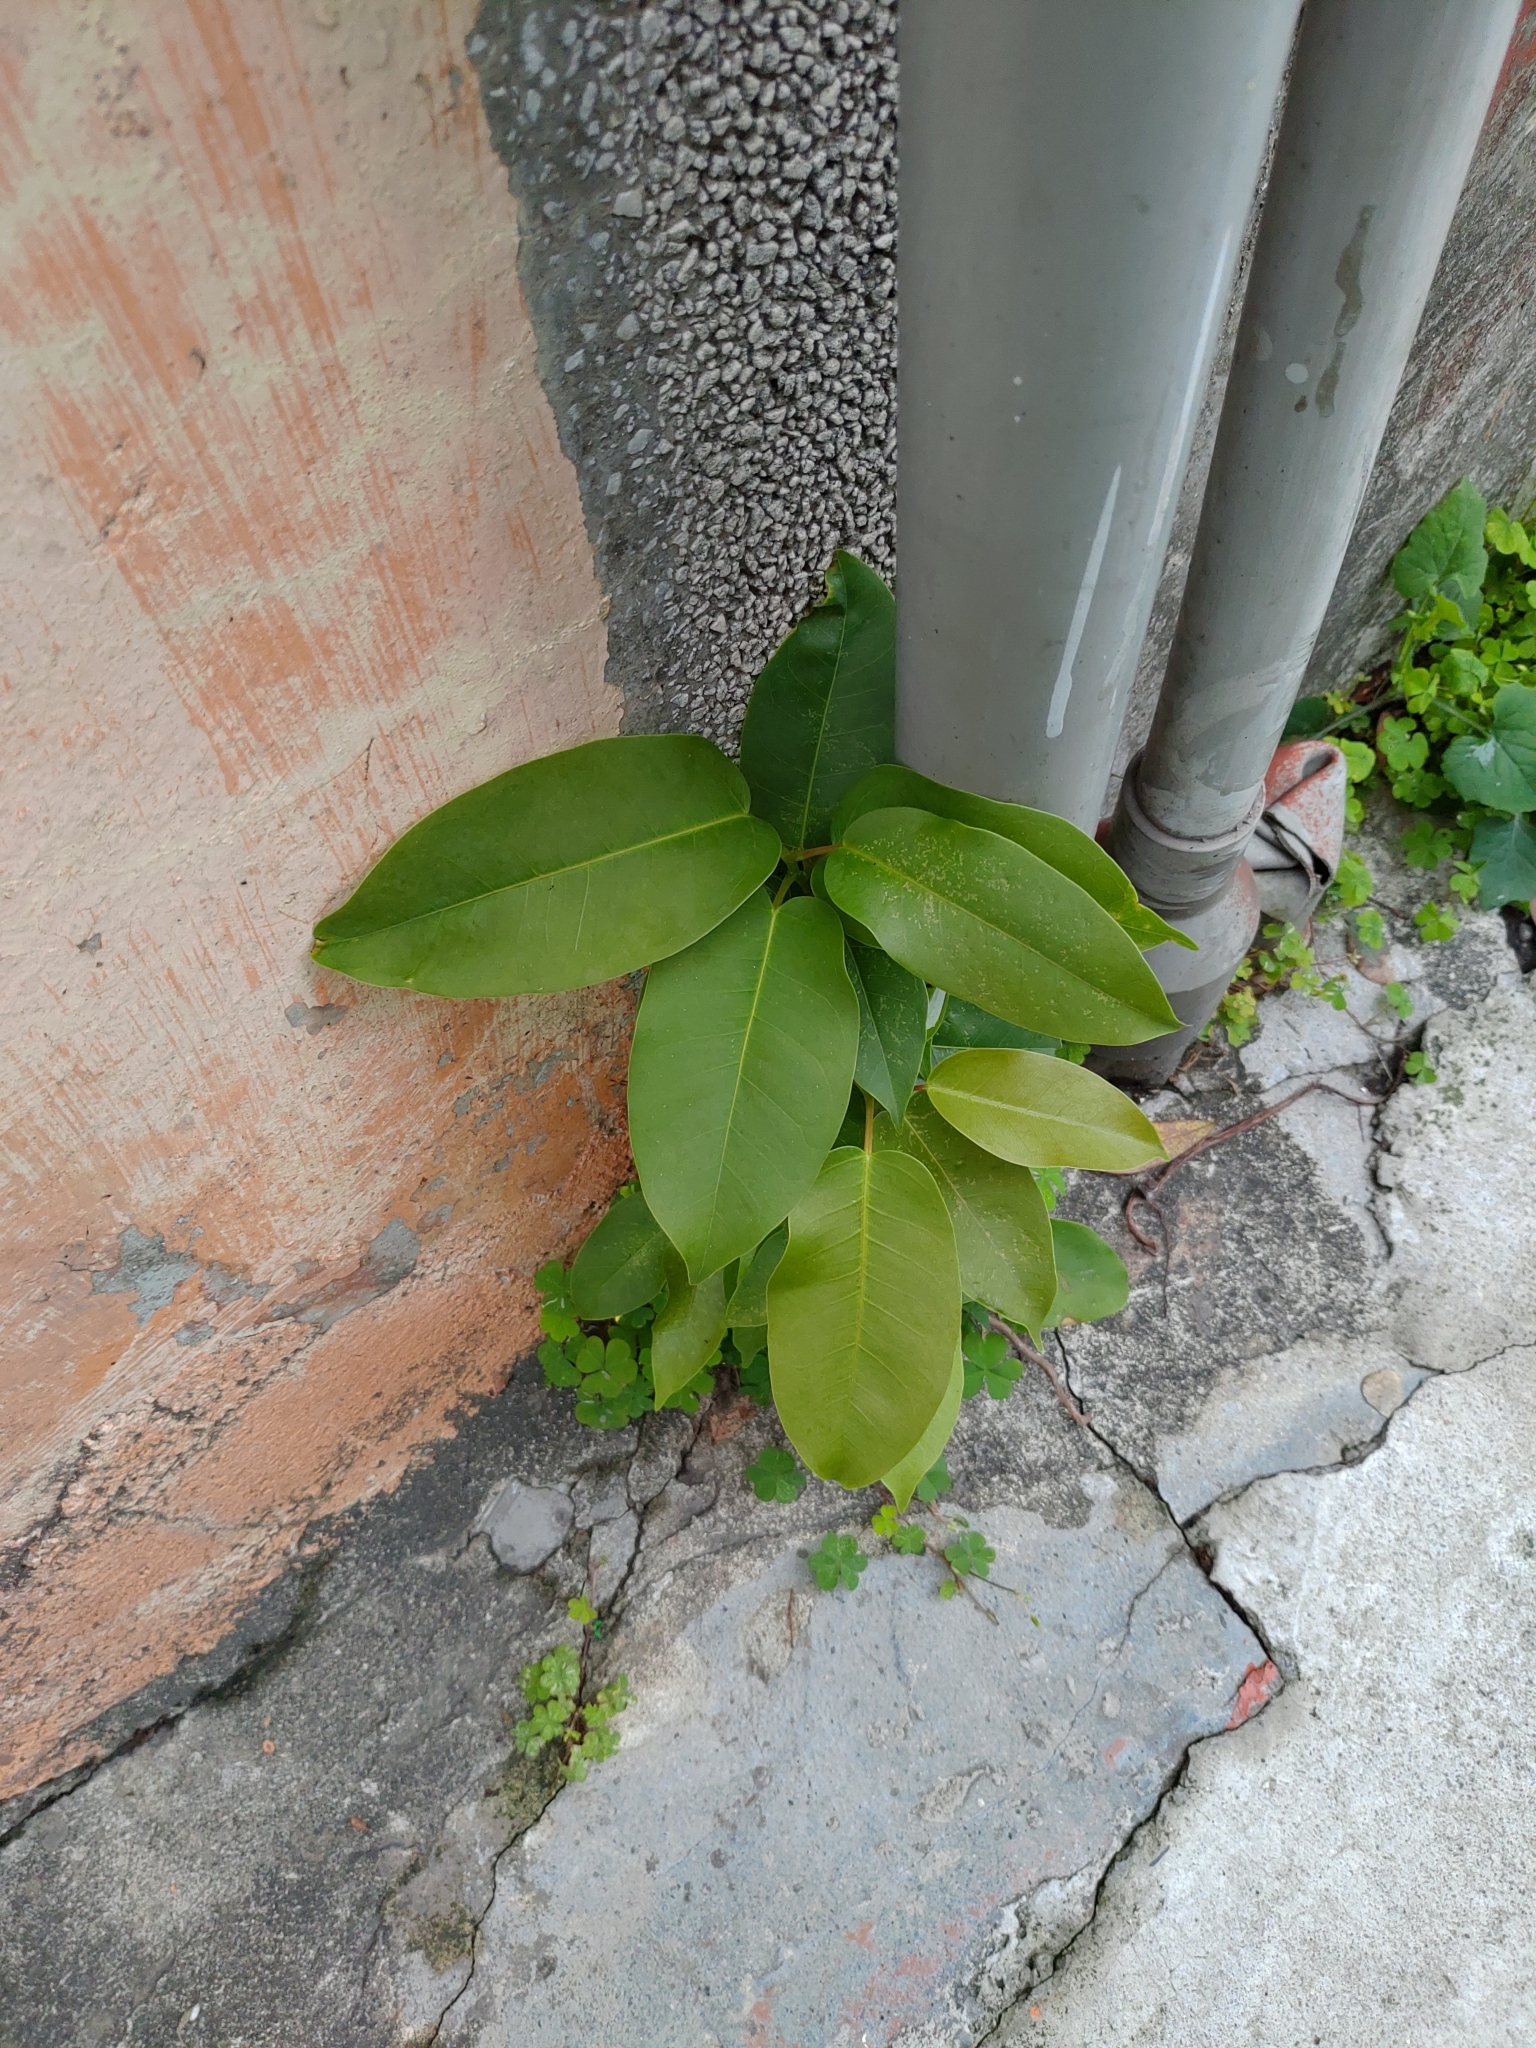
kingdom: Plantae
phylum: Tracheophyta
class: Magnoliopsida
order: Rosales
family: Moraceae
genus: Ficus
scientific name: Ficus subpisocarpa
